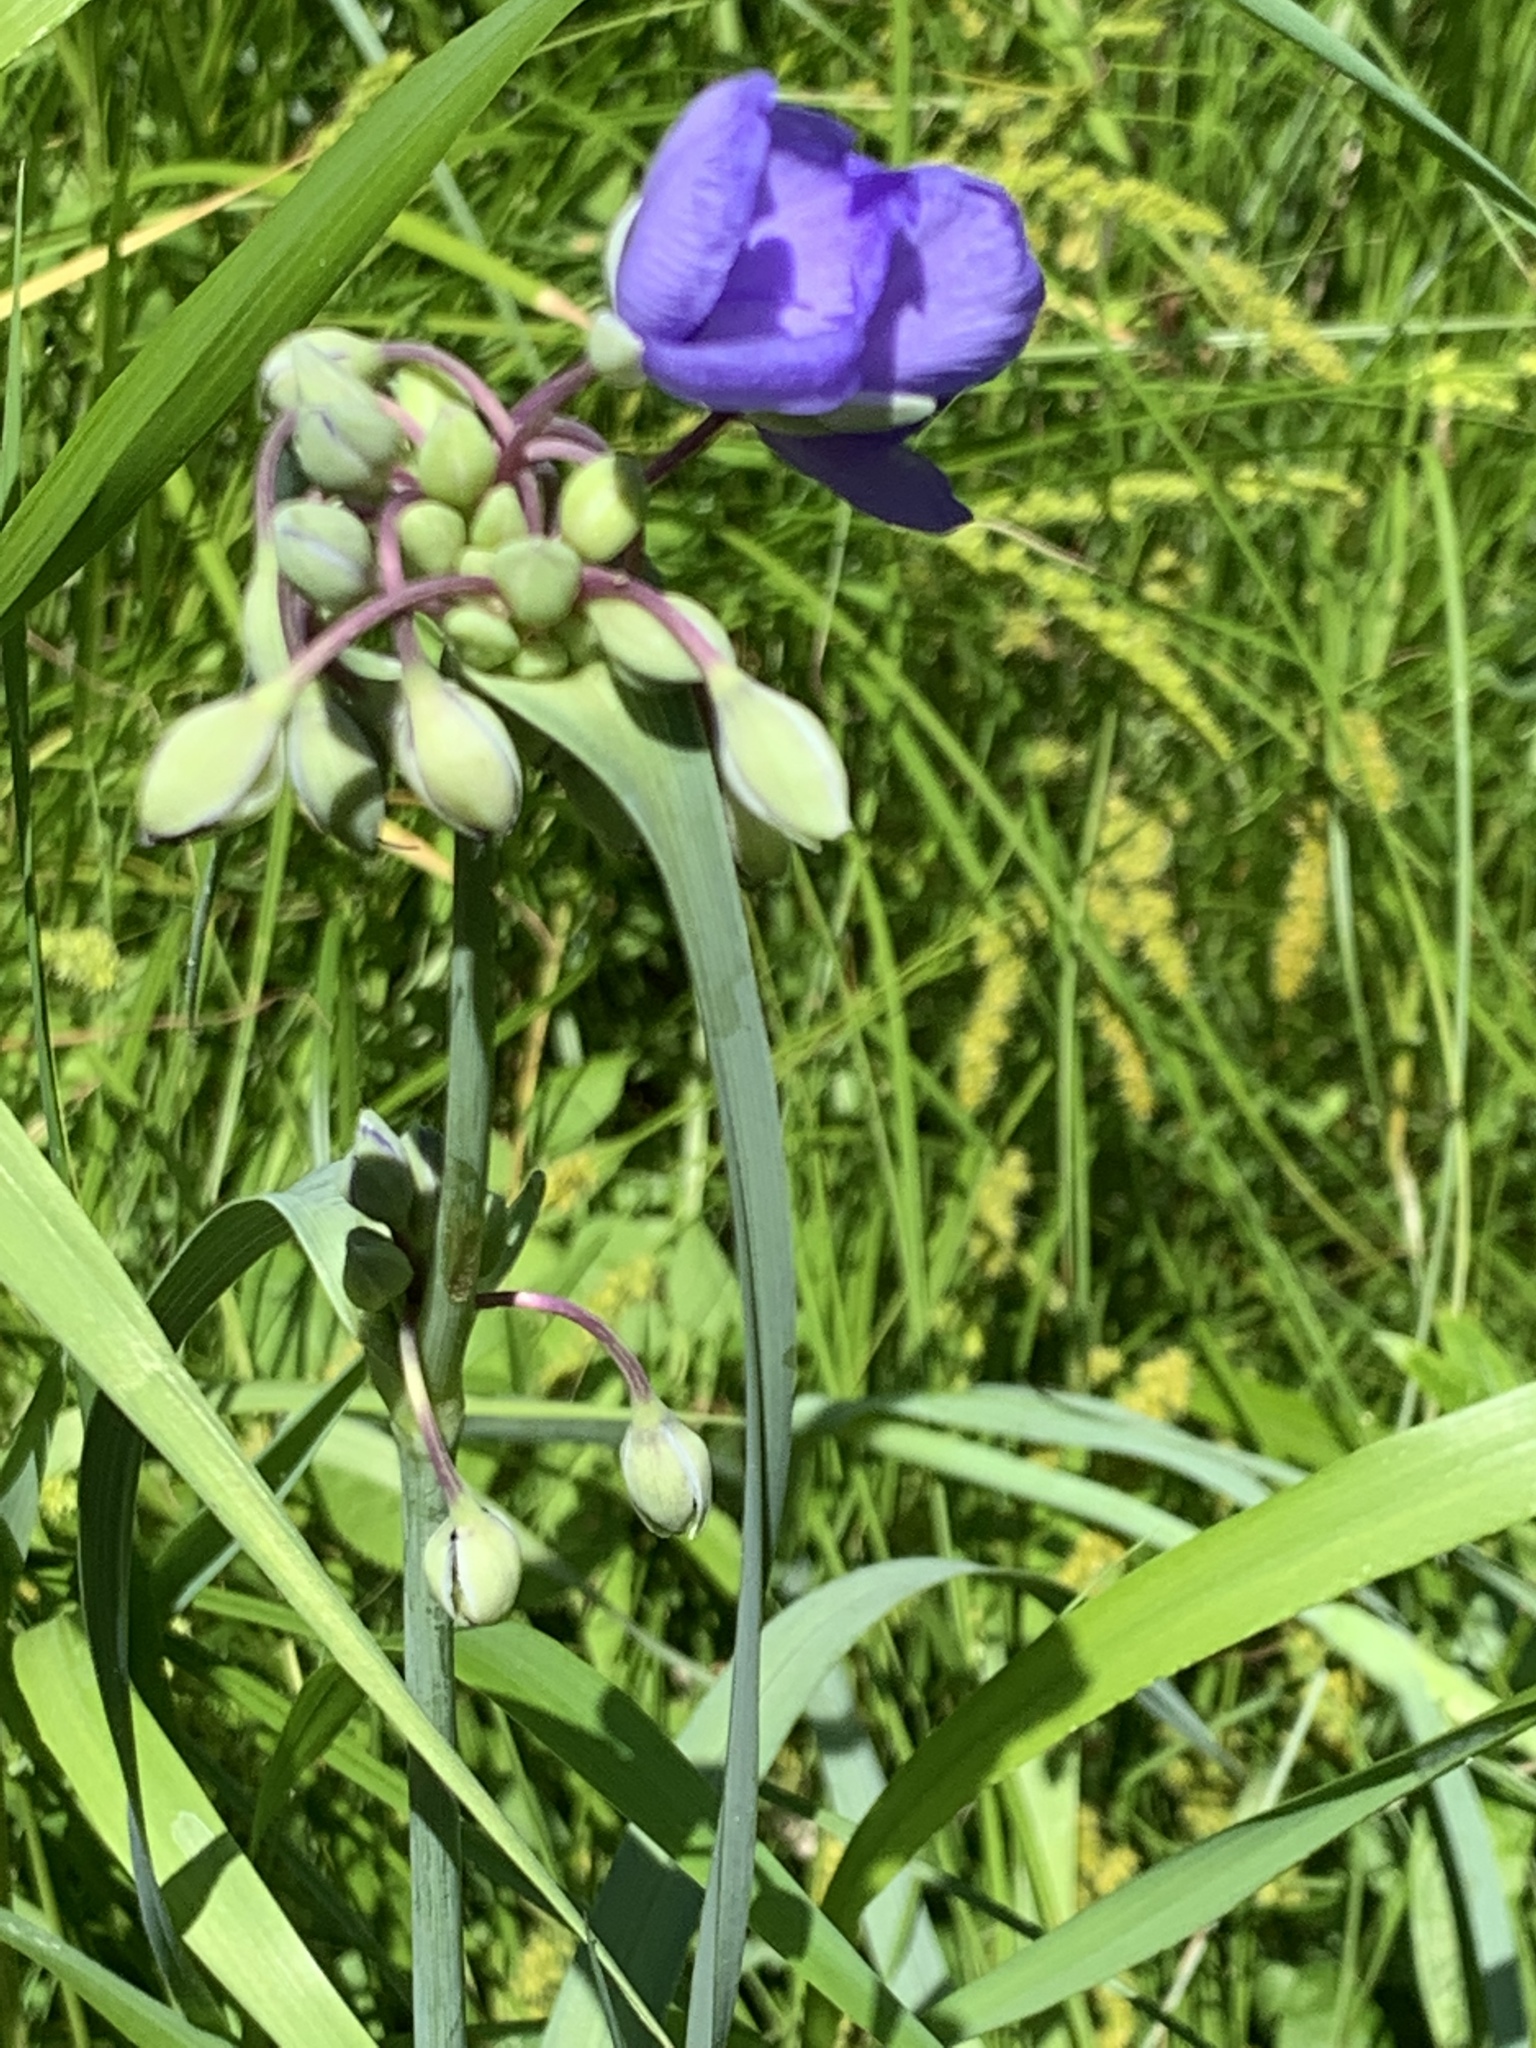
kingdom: Plantae
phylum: Tracheophyta
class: Liliopsida
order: Commelinales
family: Commelinaceae
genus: Tradescantia
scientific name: Tradescantia ohiensis
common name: Ohio spiderwort
